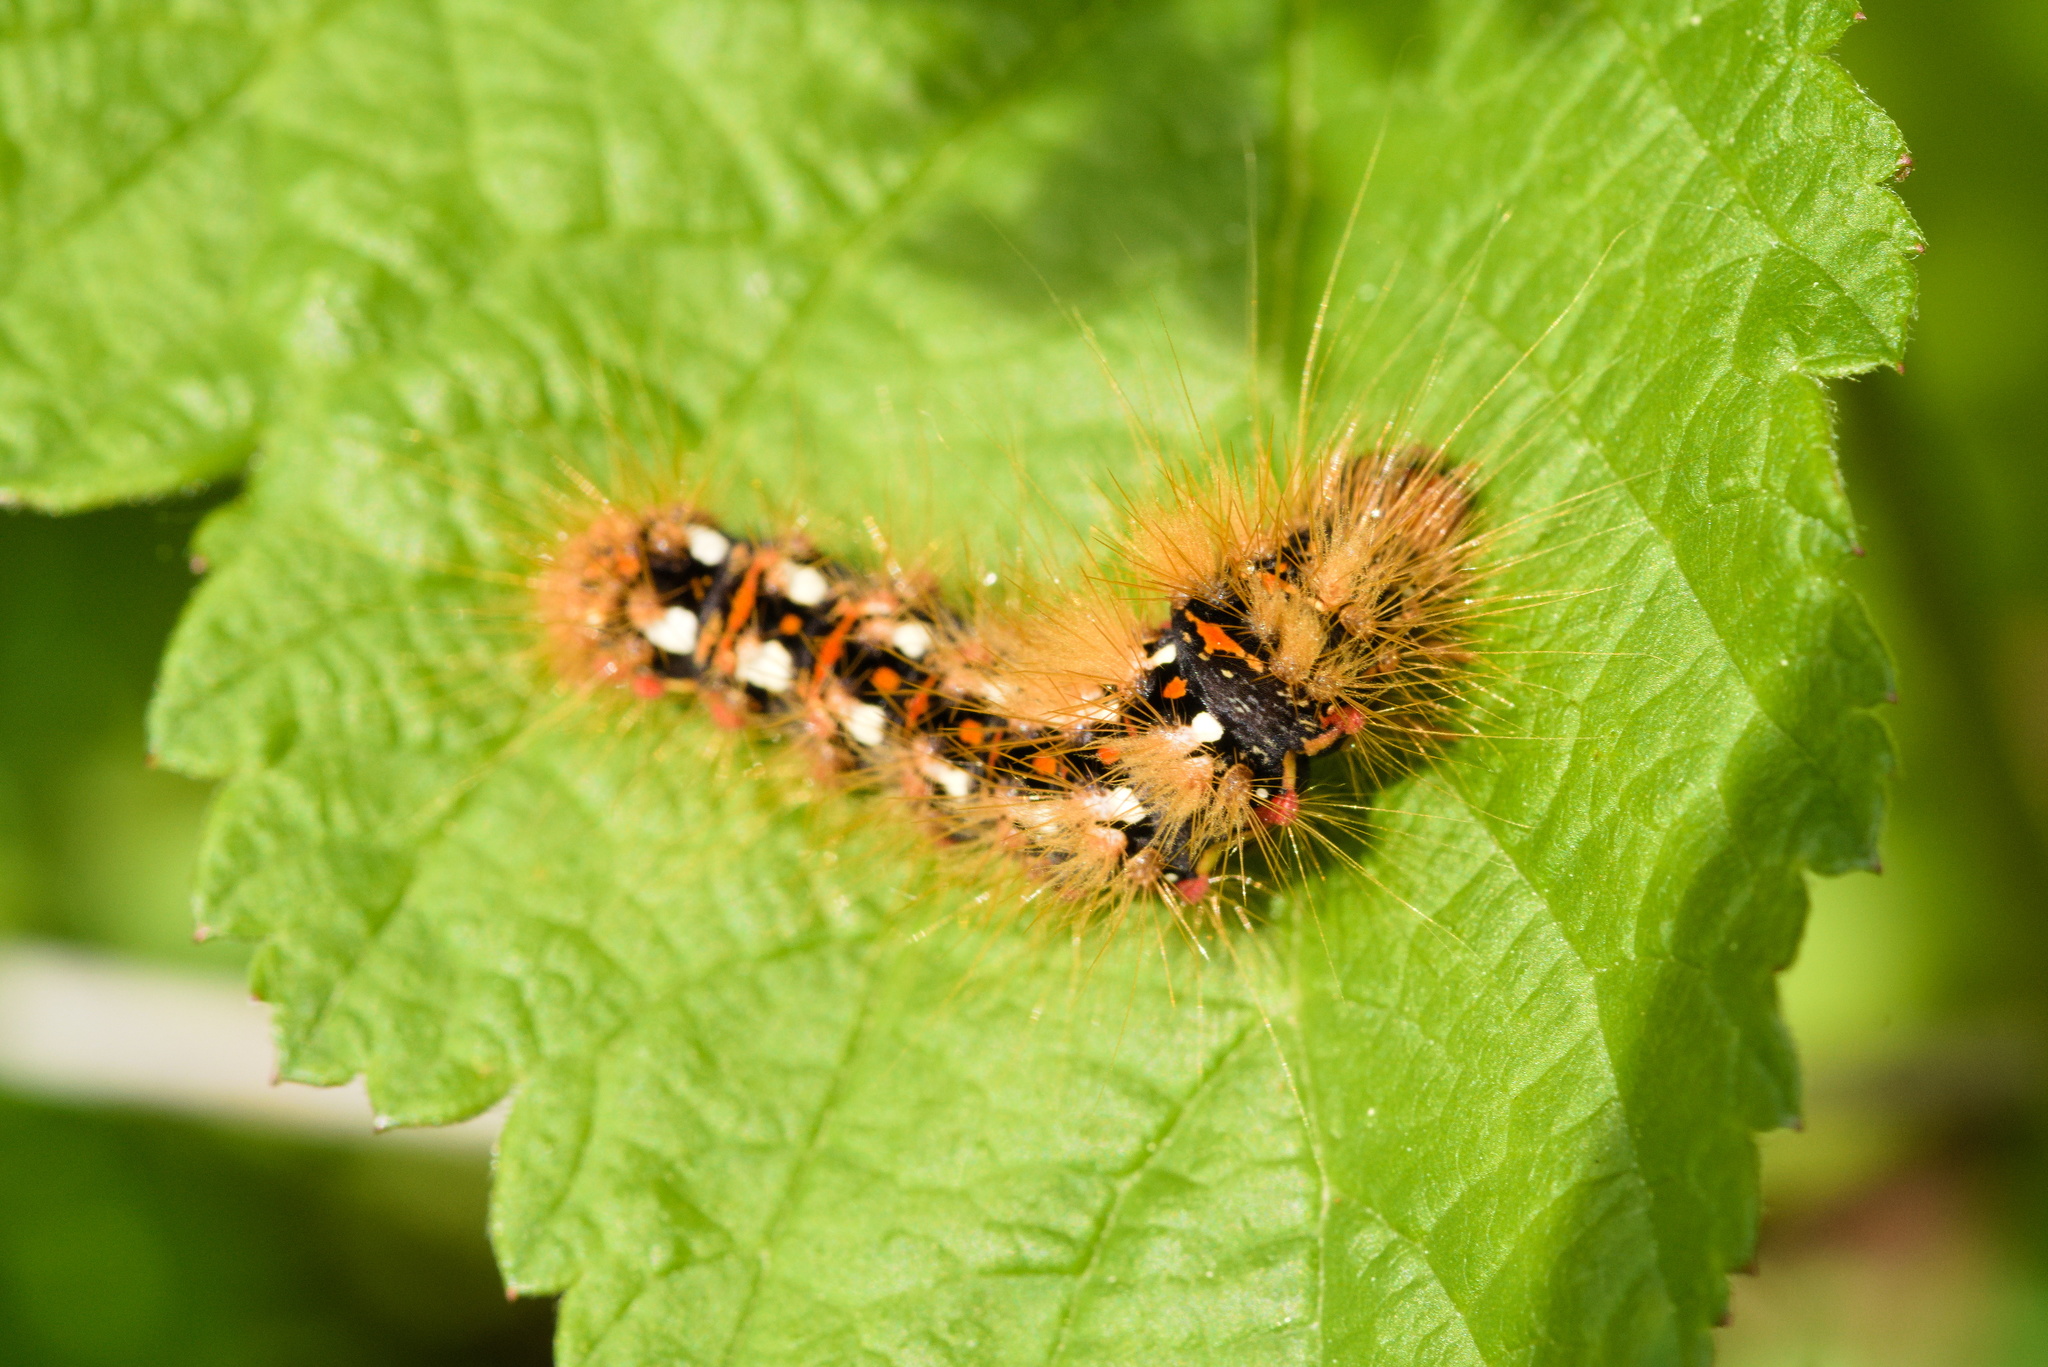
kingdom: Animalia
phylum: Arthropoda
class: Insecta
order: Lepidoptera
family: Noctuidae
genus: Acronicta
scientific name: Acronicta rumicis
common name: Knot grass
